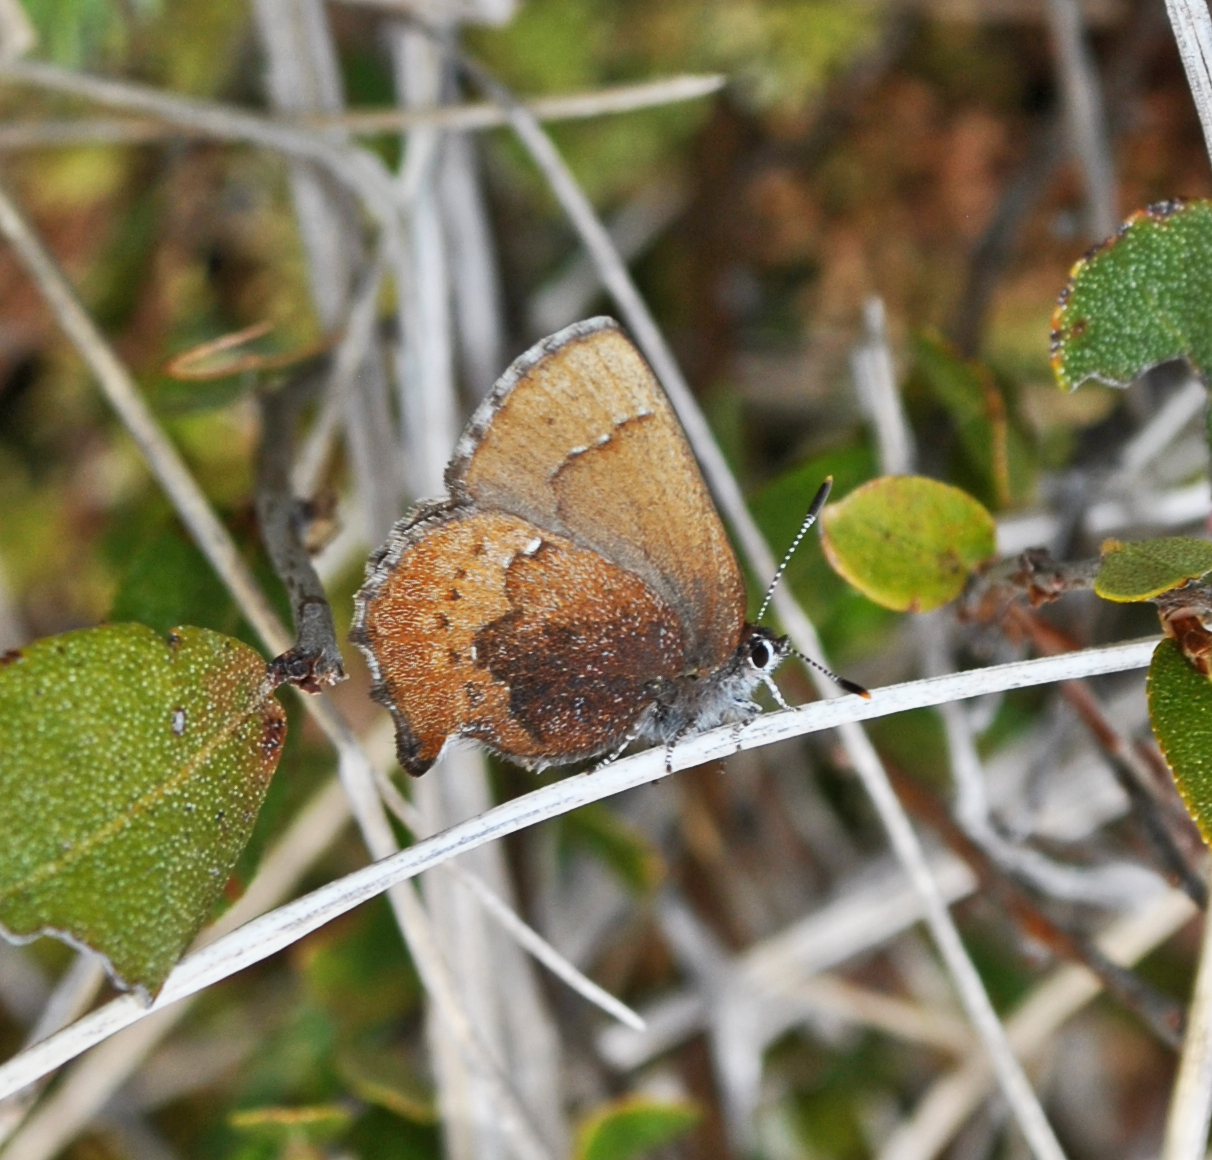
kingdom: Animalia
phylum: Arthropoda
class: Insecta
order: Lepidoptera
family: Lycaenidae
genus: Incisalia
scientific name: Incisalia irioides
